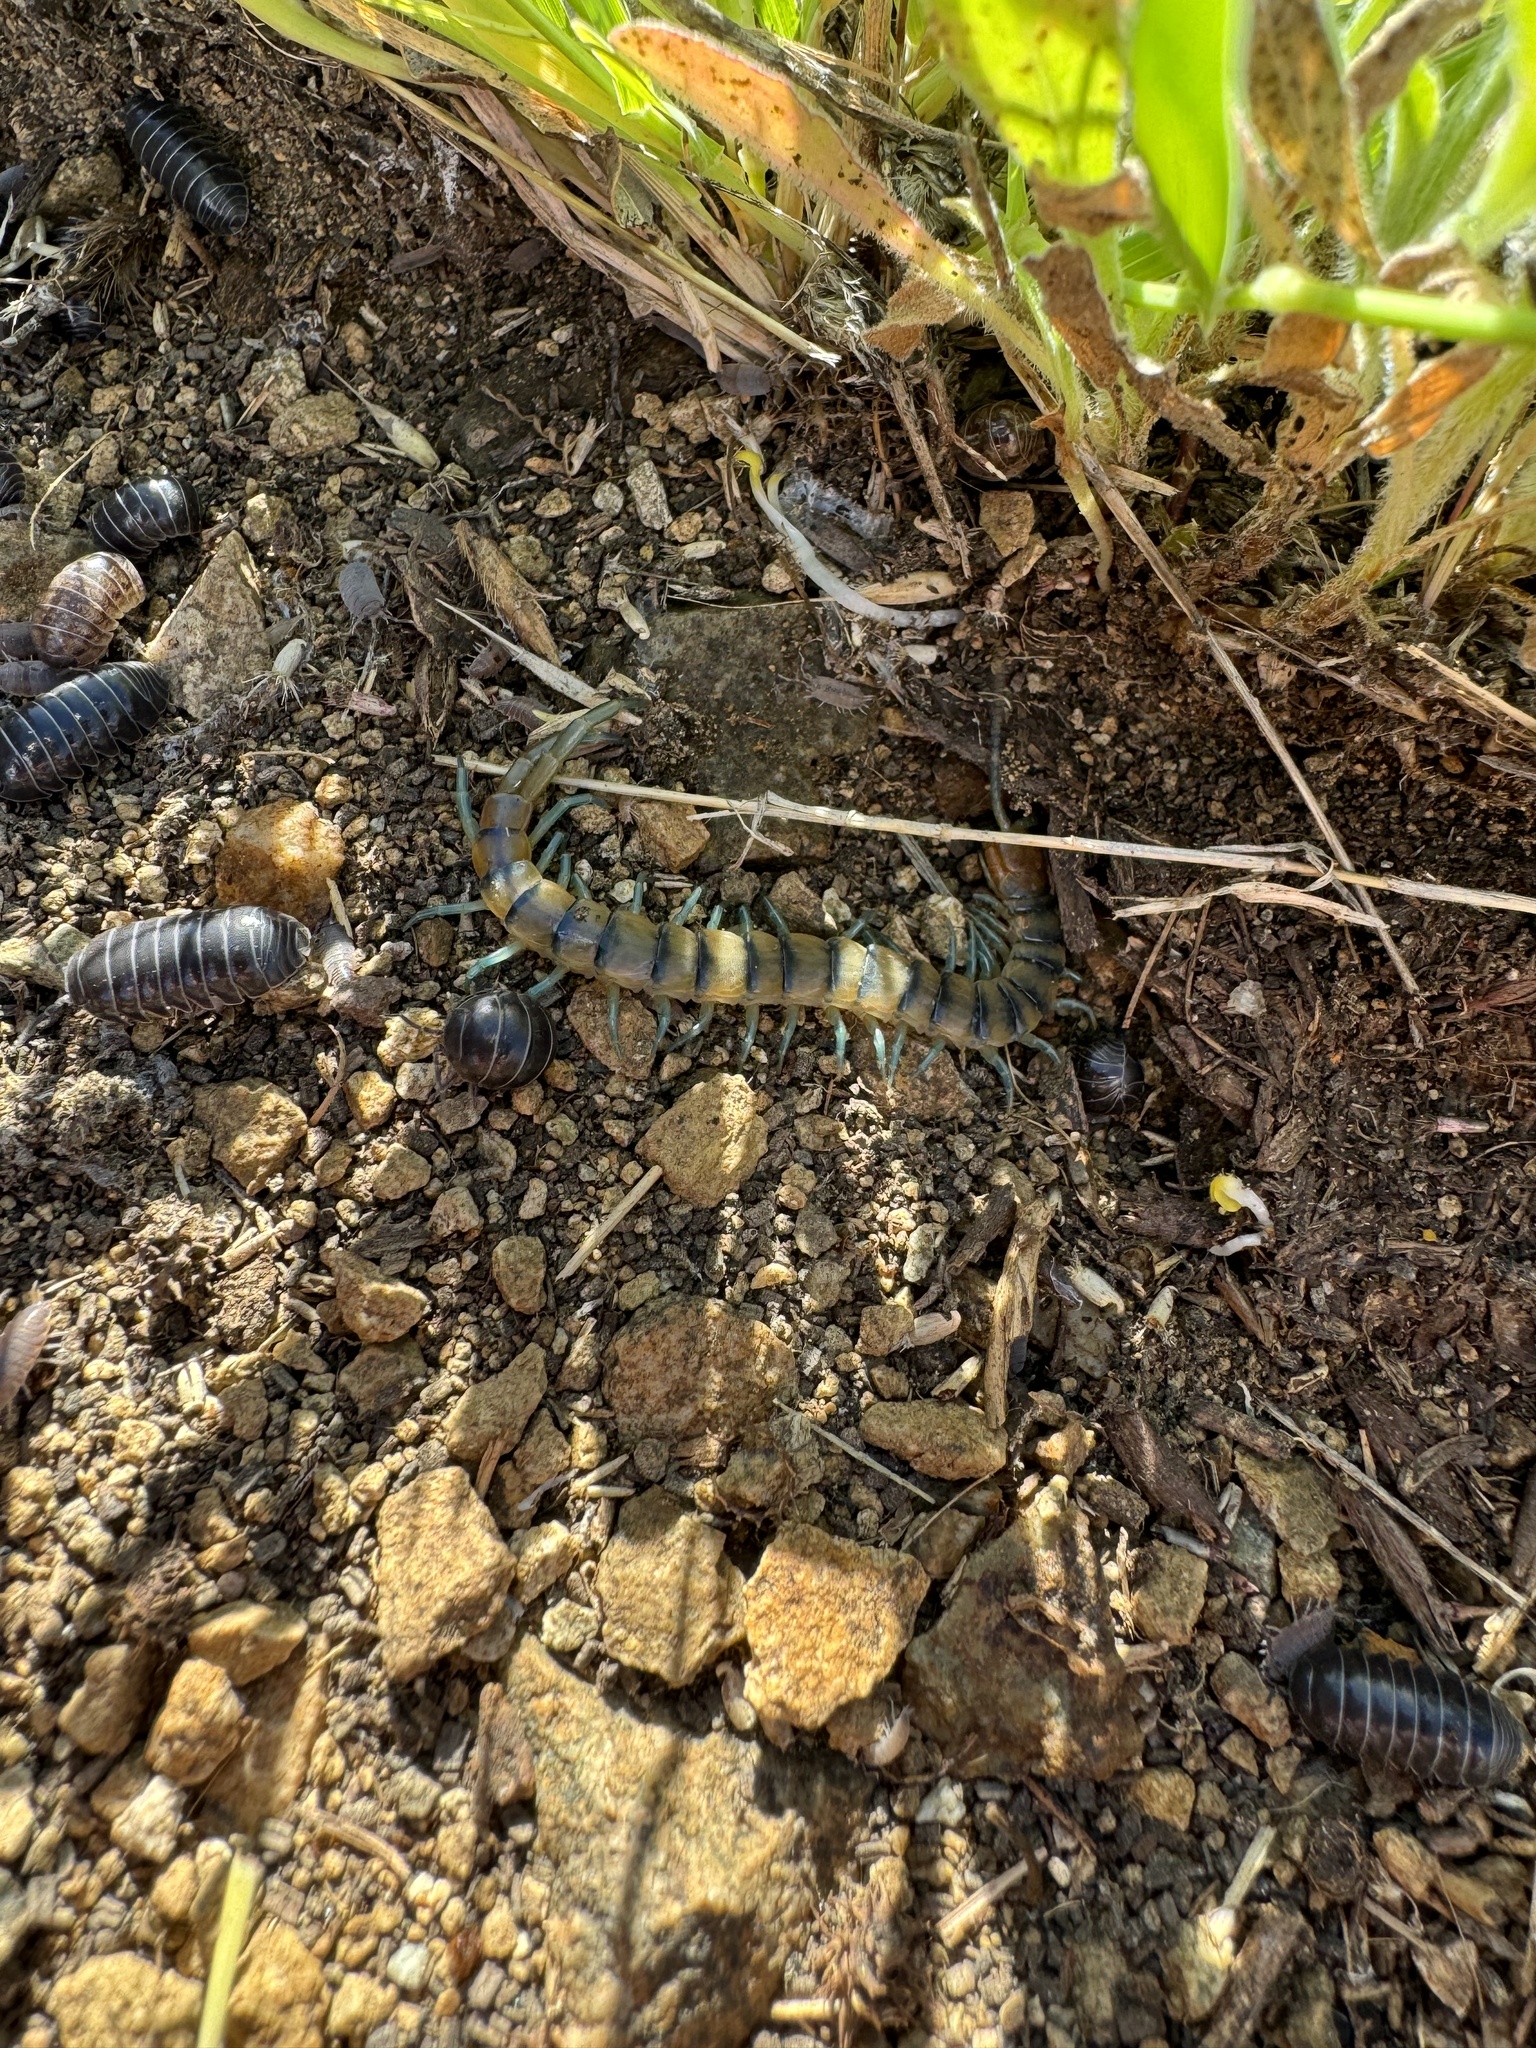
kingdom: Animalia
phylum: Arthropoda
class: Chilopoda
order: Scolopendromorpha
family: Scolopendridae
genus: Scolopendra
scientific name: Scolopendra polymorpha
